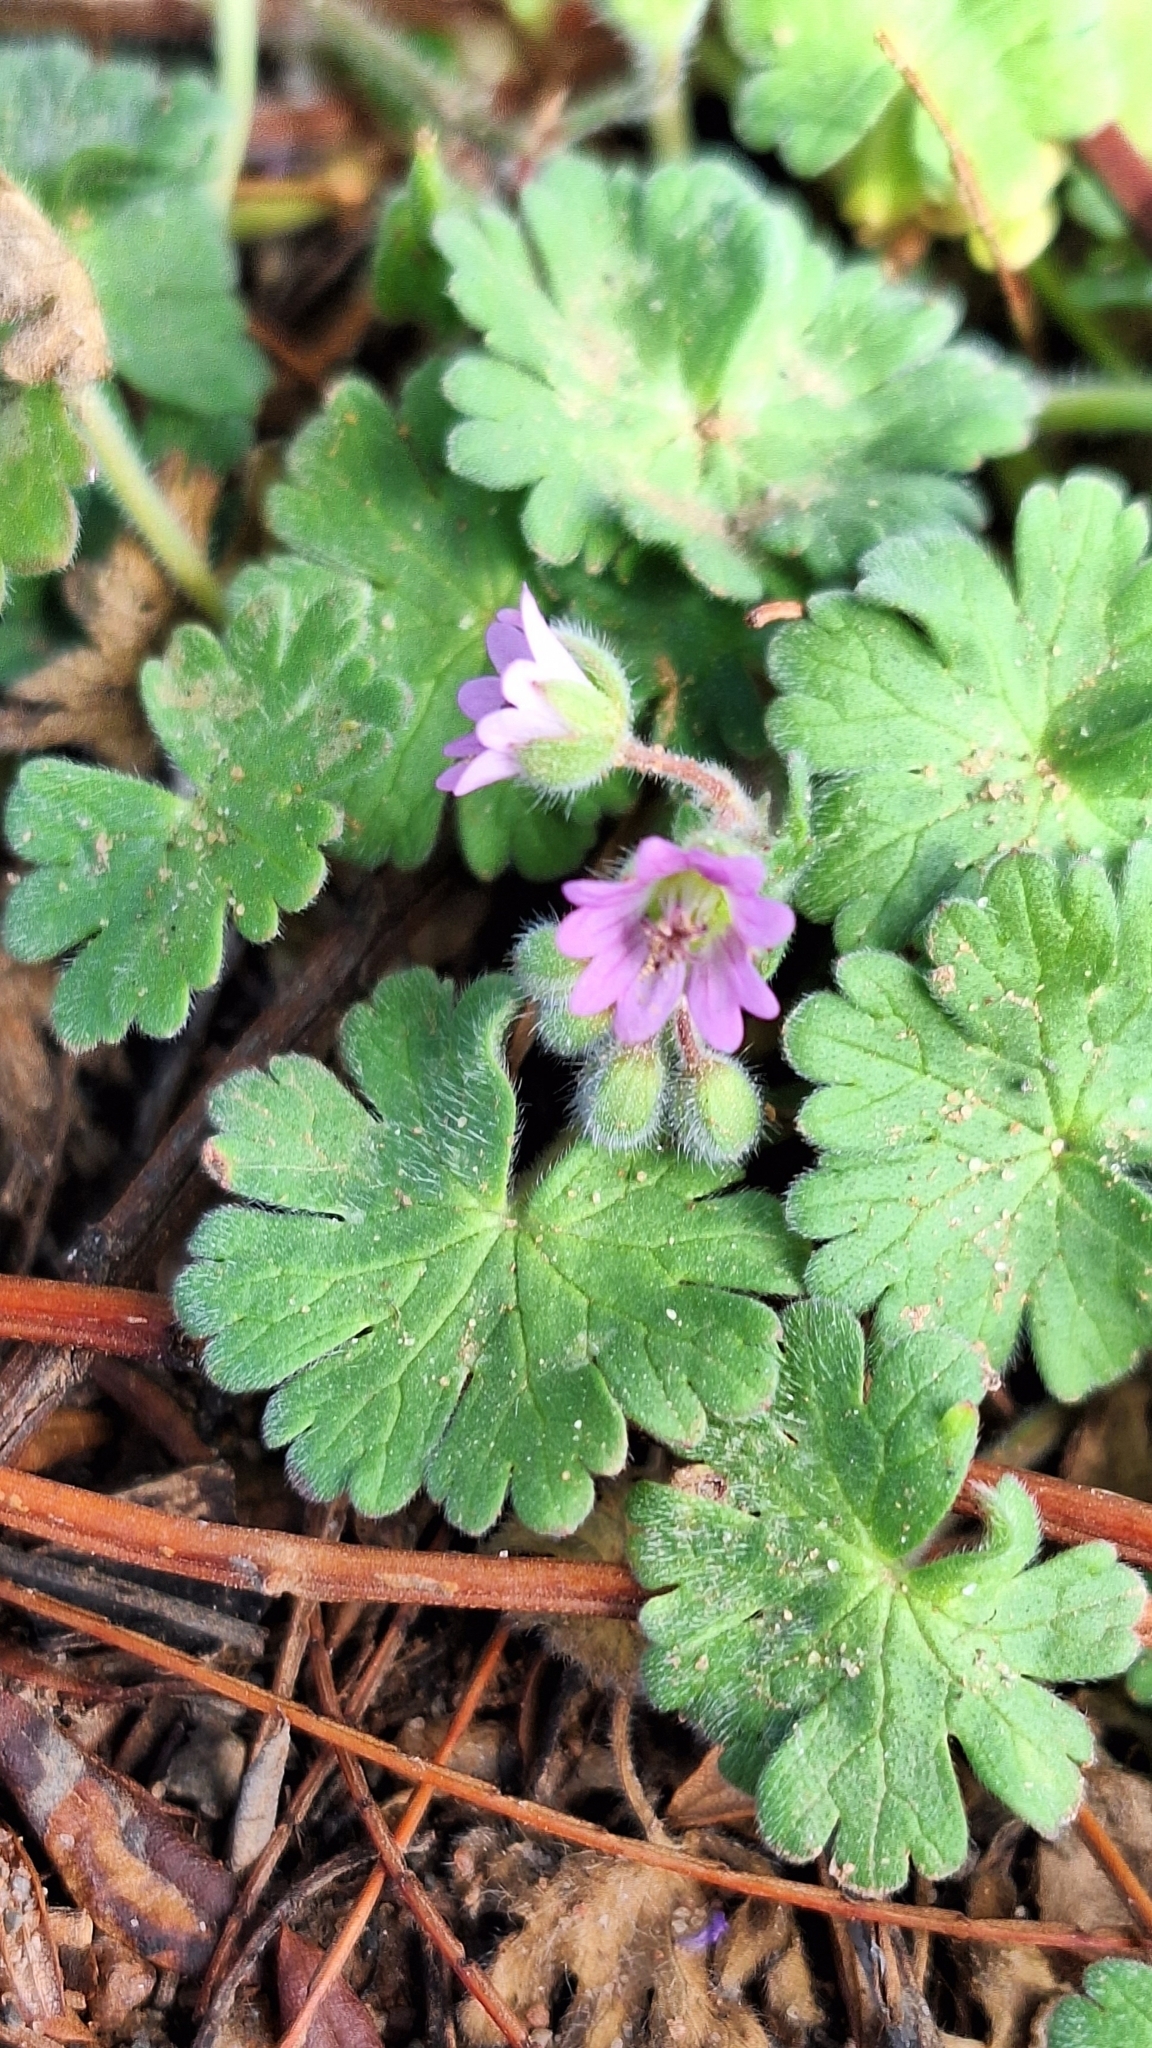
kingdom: Plantae
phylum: Tracheophyta
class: Magnoliopsida
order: Geraniales
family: Geraniaceae
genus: Geranium
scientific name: Geranium molle
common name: Dove's-foot crane's-bill
